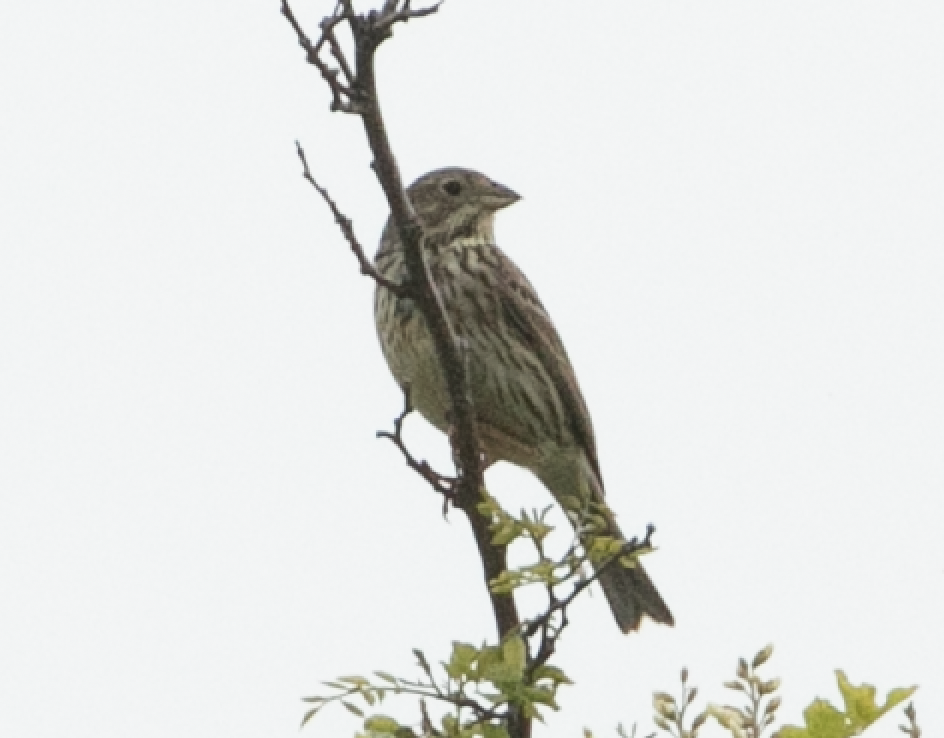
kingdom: Animalia
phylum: Chordata
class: Aves
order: Passeriformes
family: Emberizidae
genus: Emberiza
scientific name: Emberiza calandra
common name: Corn bunting
